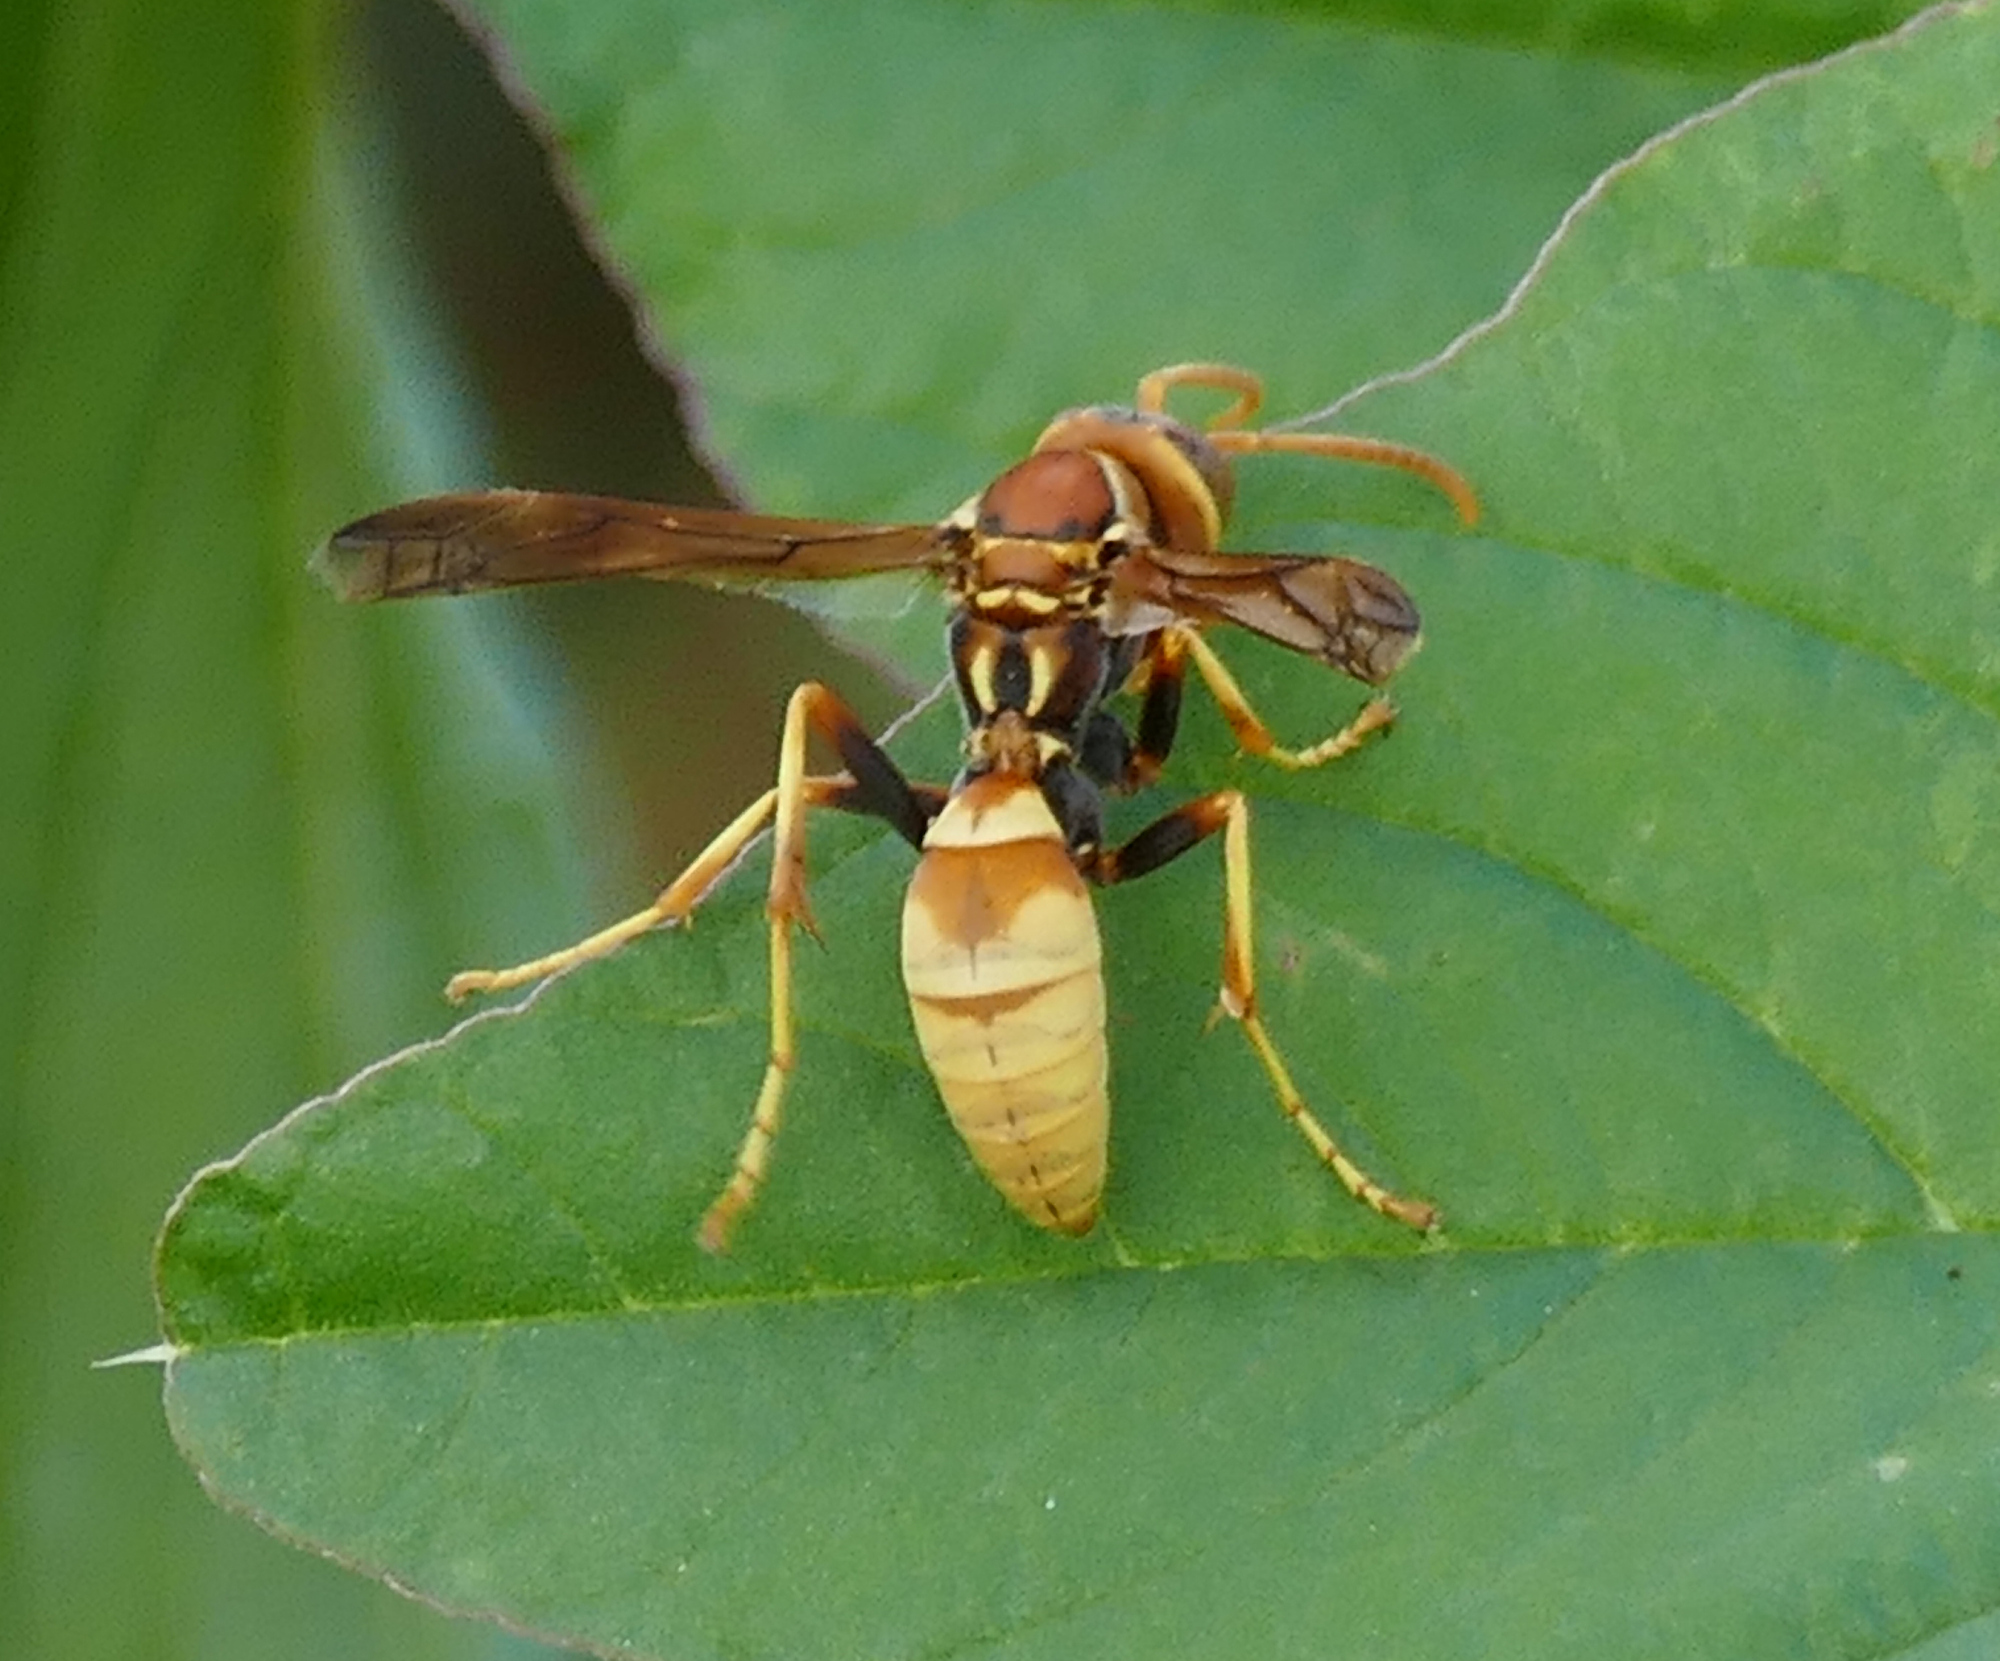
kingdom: Animalia
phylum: Arthropoda
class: Insecta
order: Hymenoptera
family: Eumenidae
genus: Polistes
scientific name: Polistes dorsalis
